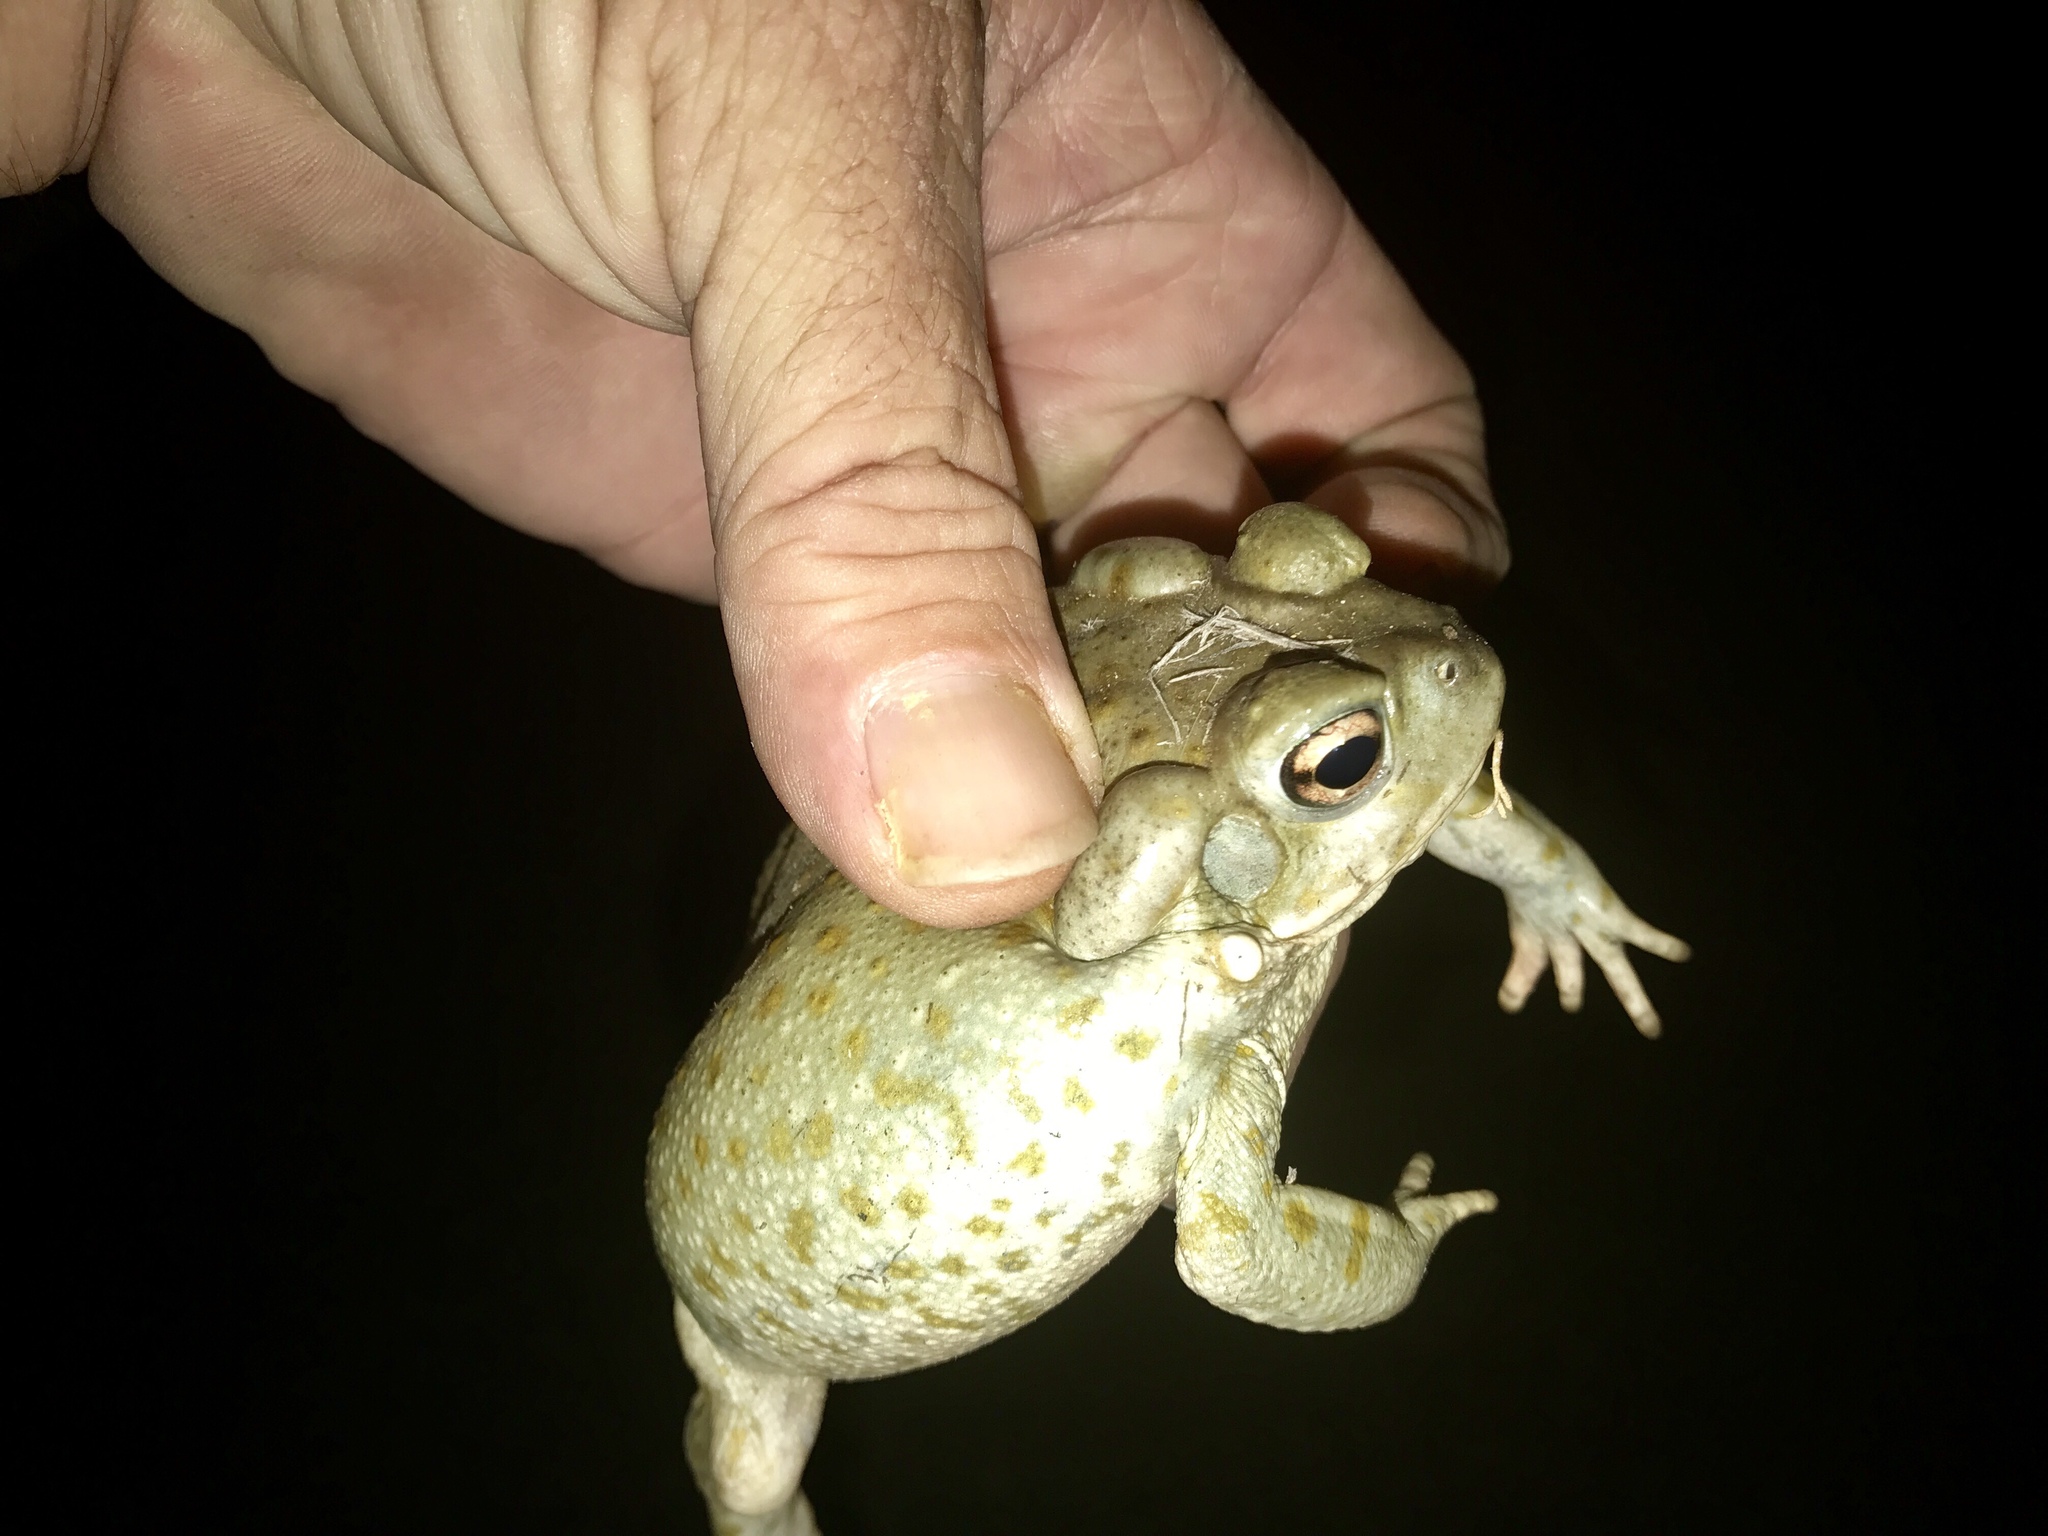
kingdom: Animalia
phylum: Chordata
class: Amphibia
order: Anura
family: Bufonidae
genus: Incilius
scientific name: Incilius alvarius
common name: Sonoran desert toad
